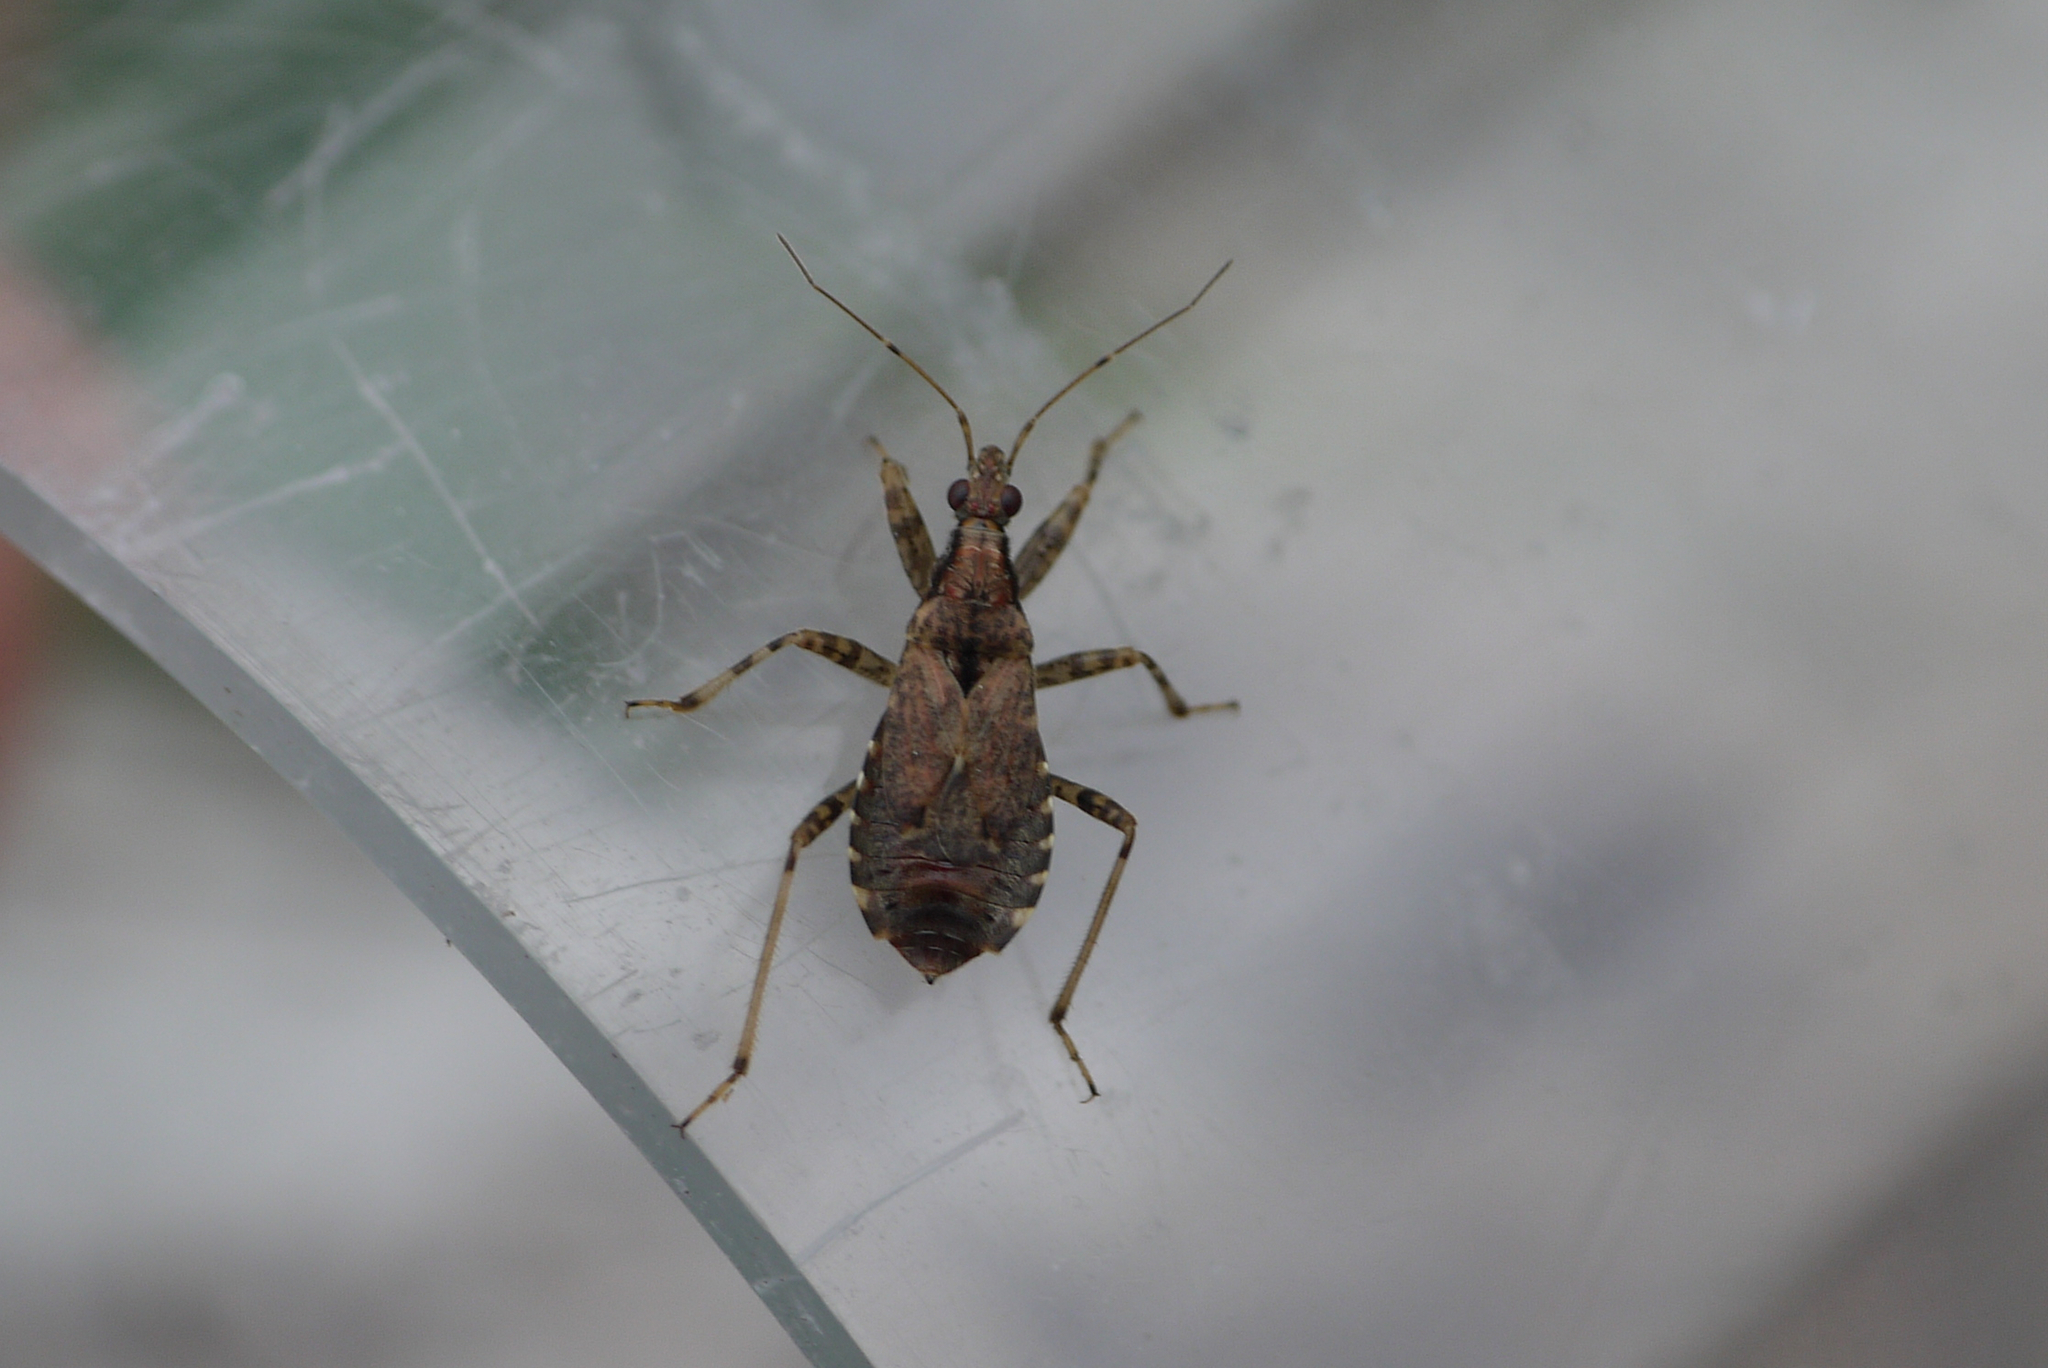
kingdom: Animalia
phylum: Arthropoda
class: Insecta
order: Hemiptera
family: Nabidae
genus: Himacerus
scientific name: Himacerus mirmicoides
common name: Ant damsel bug
